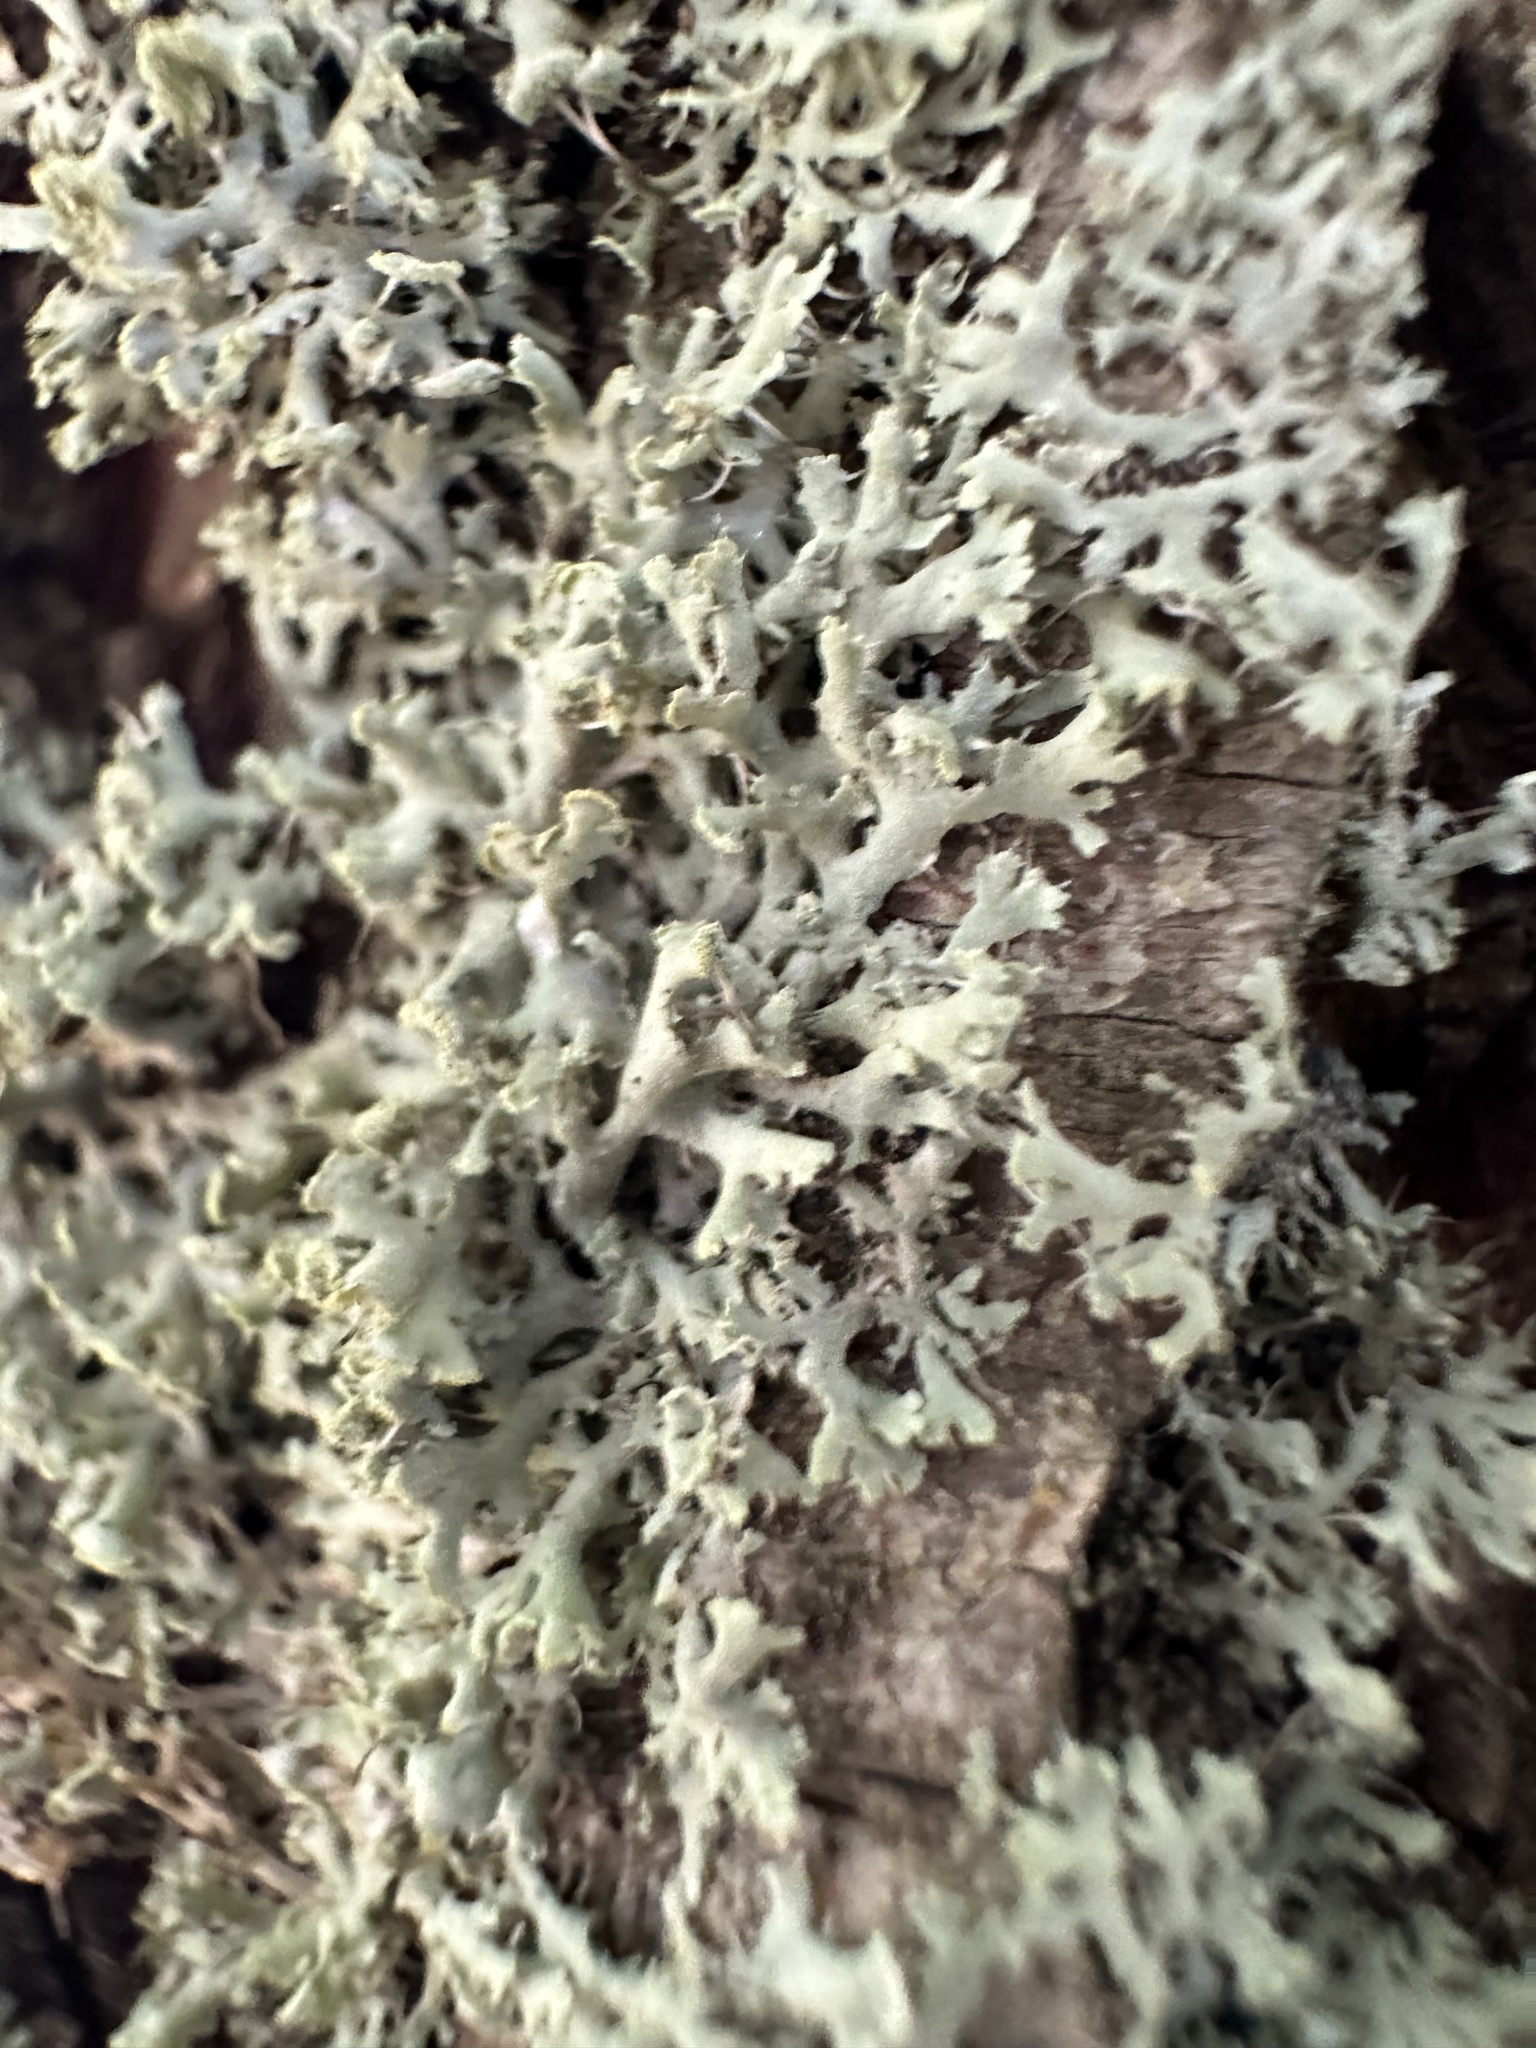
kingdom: Fungi
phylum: Ascomycota
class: Lecanoromycetes
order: Caliciales
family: Physciaceae
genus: Physcia
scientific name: Physcia tenella
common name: Fringed rosette lichen
